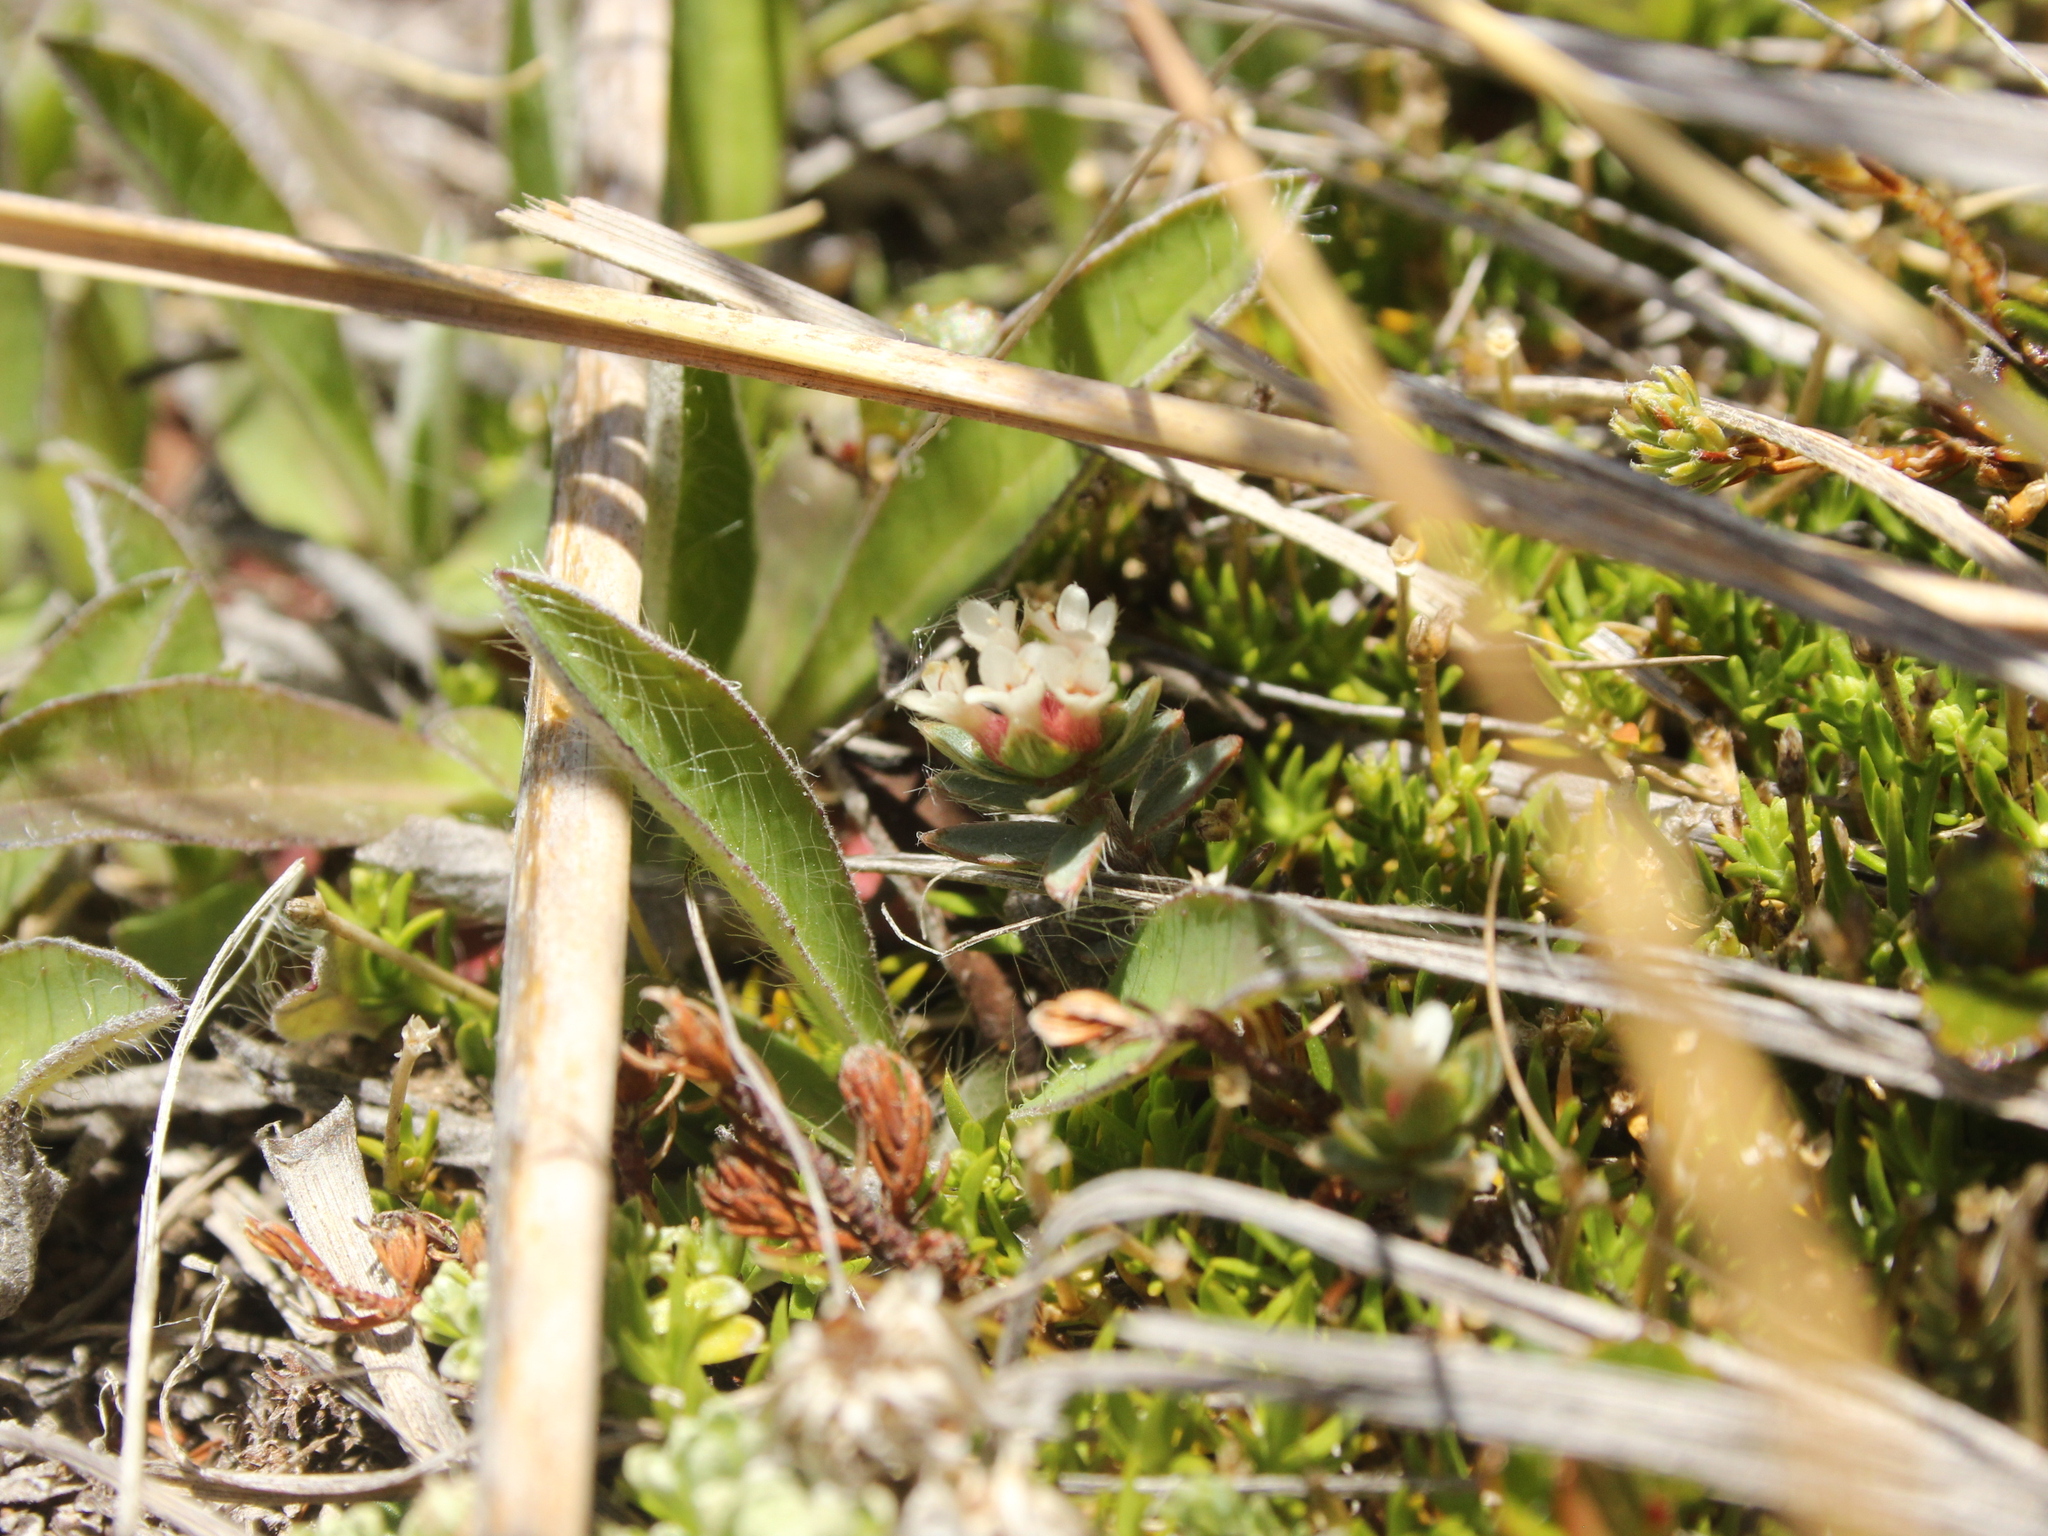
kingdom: Plantae
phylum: Tracheophyta
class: Magnoliopsida
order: Malvales
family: Thymelaeaceae
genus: Pimelea
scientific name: Pimelea oreophila
